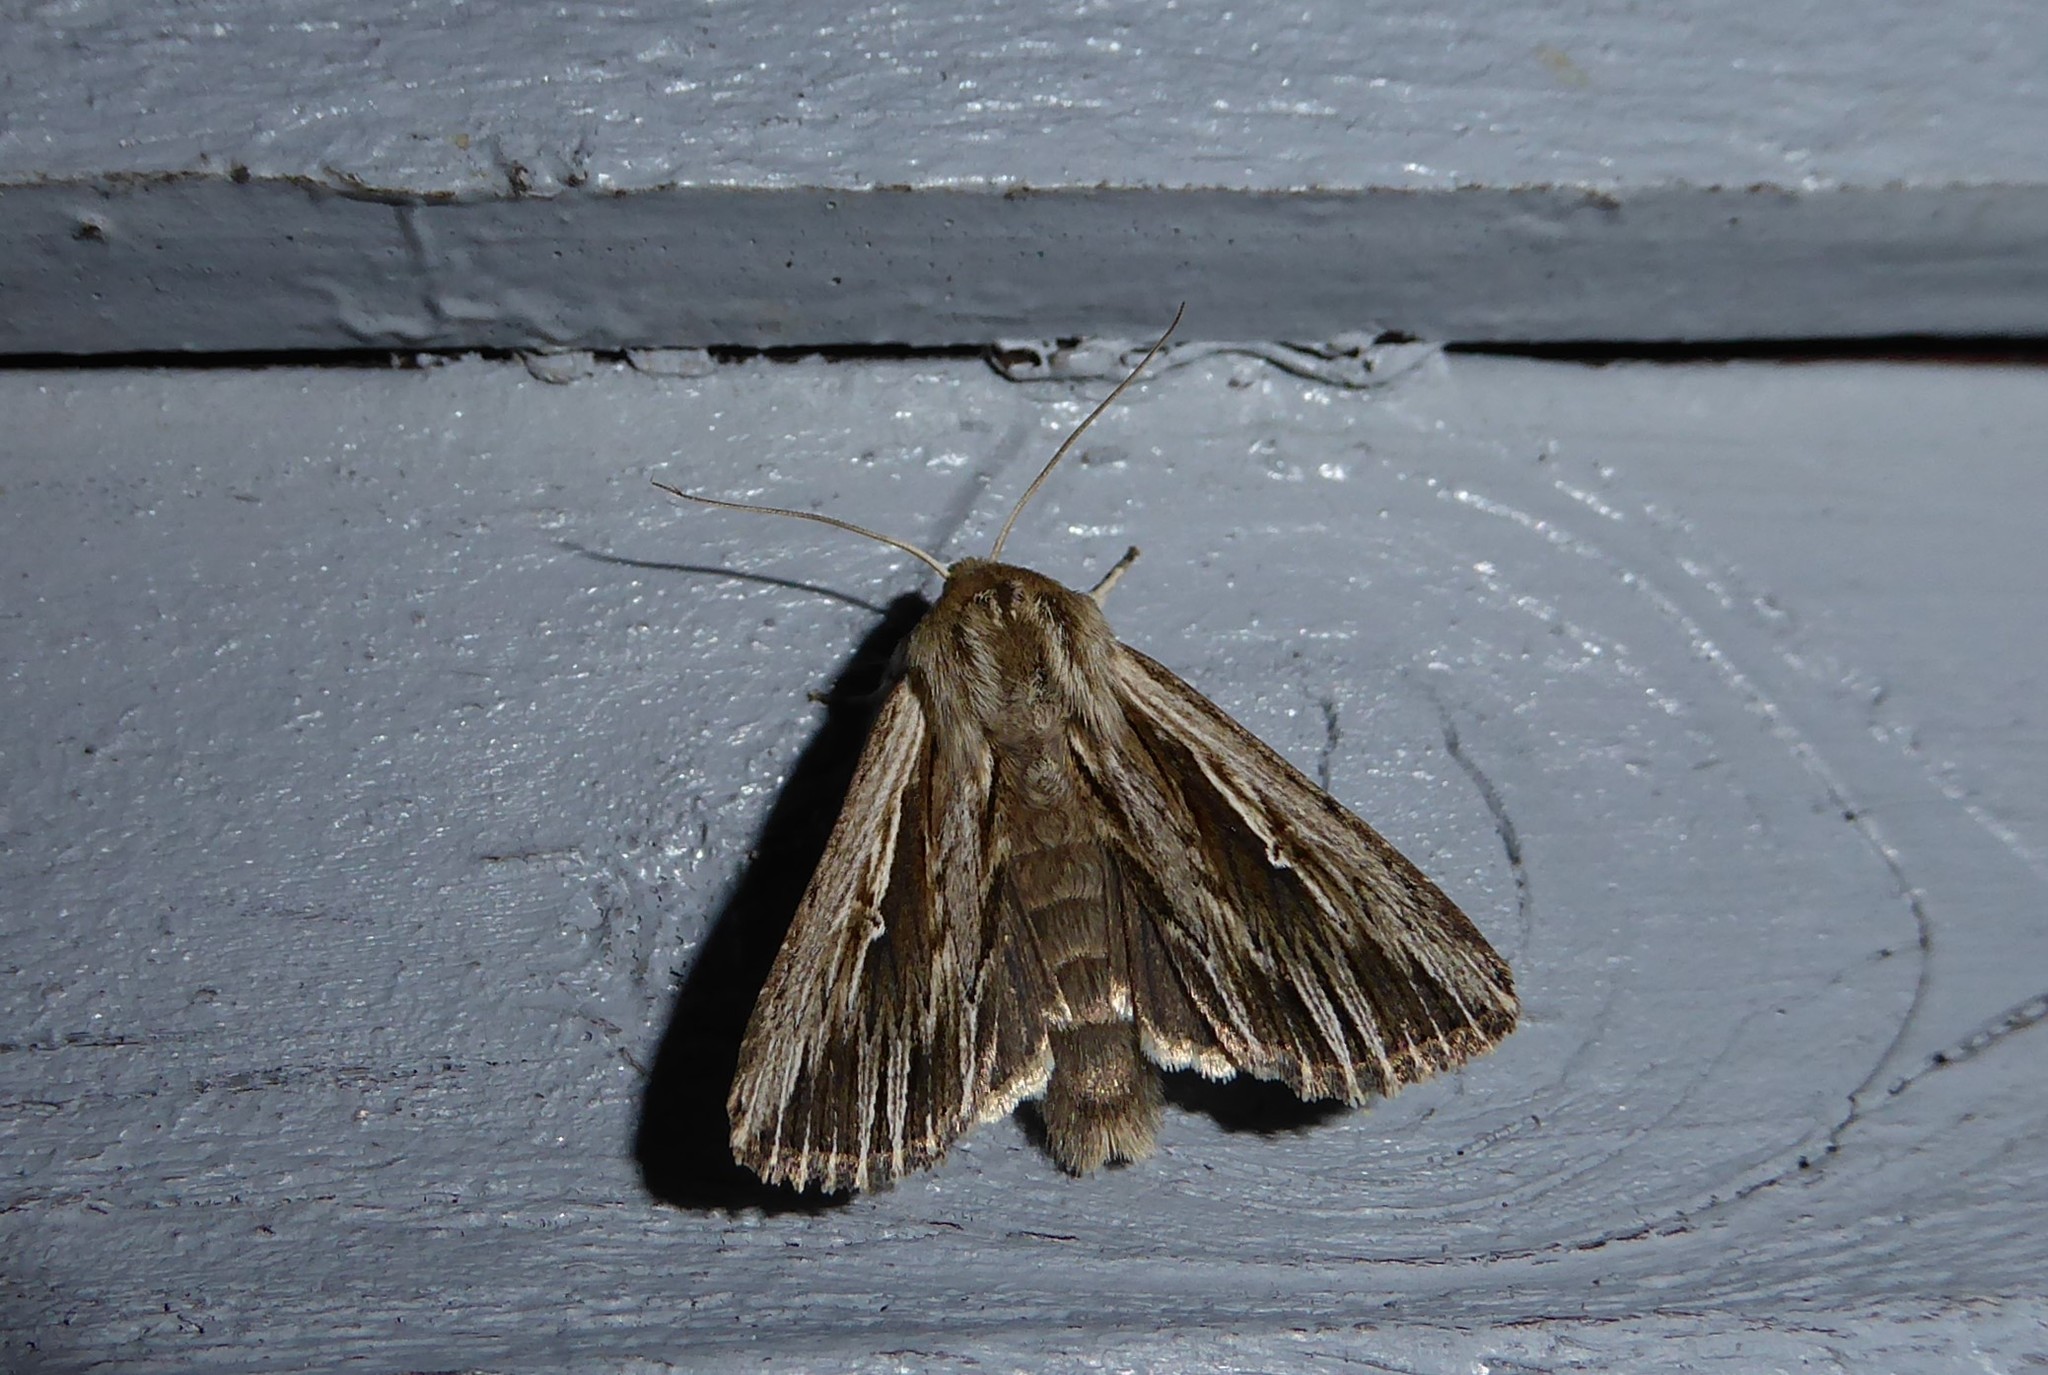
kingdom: Animalia
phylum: Arthropoda
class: Insecta
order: Lepidoptera
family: Noctuidae
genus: Persectania
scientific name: Persectania aversa
